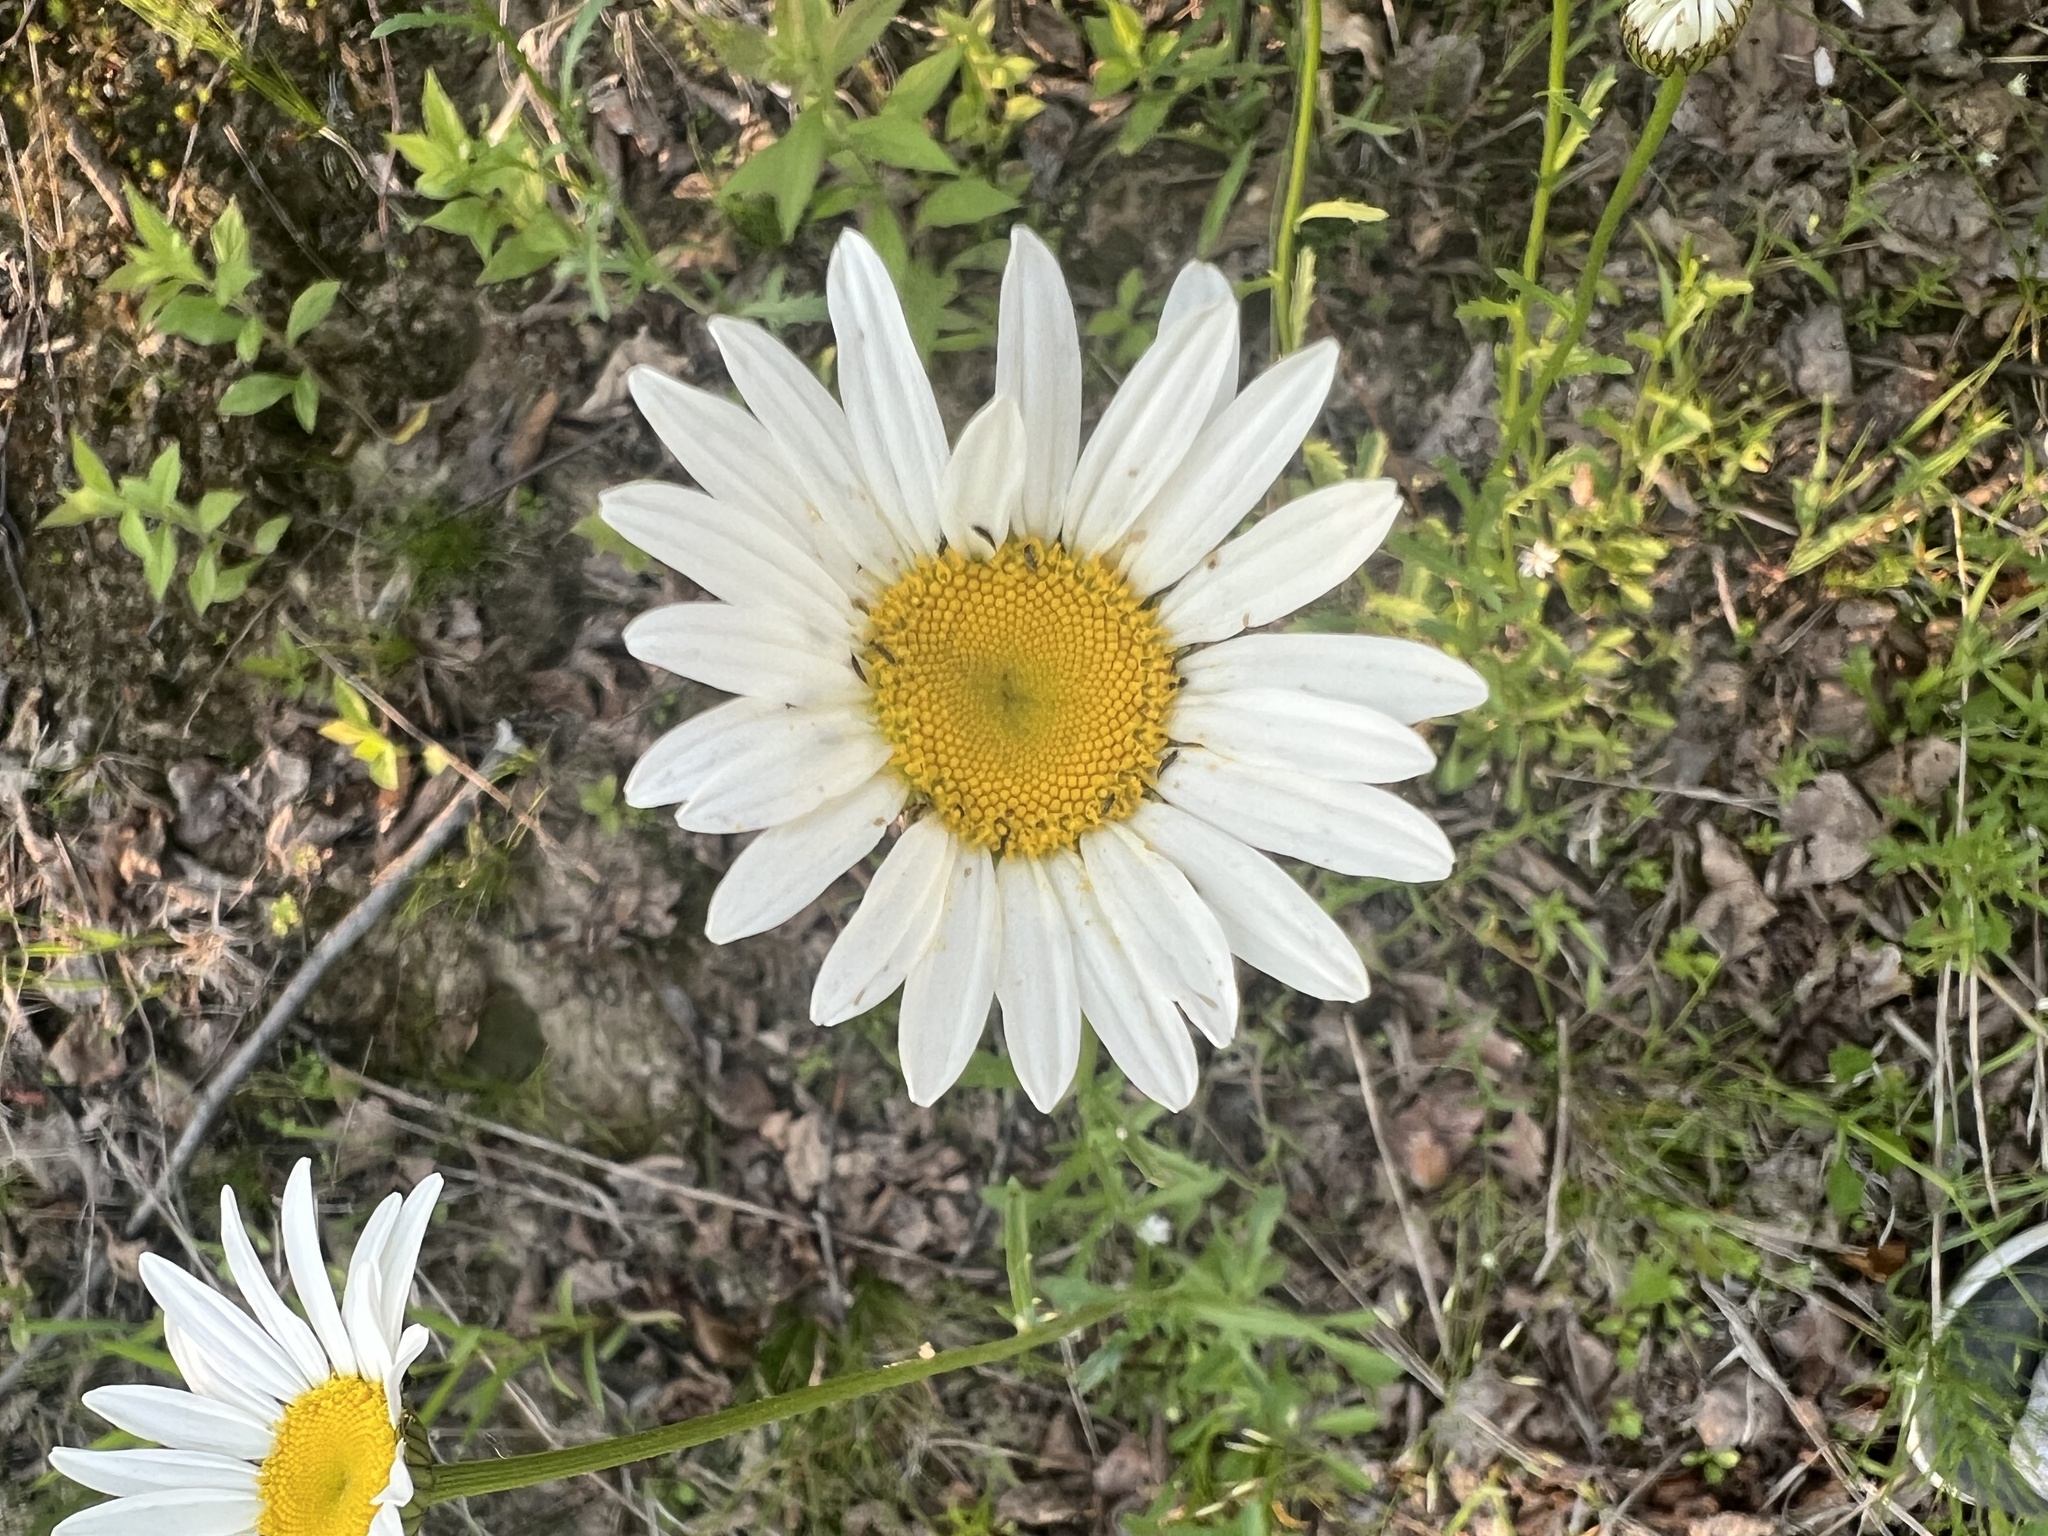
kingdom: Plantae
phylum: Tracheophyta
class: Magnoliopsida
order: Asterales
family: Asteraceae
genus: Leucanthemum
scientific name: Leucanthemum vulgare
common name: Oxeye daisy
